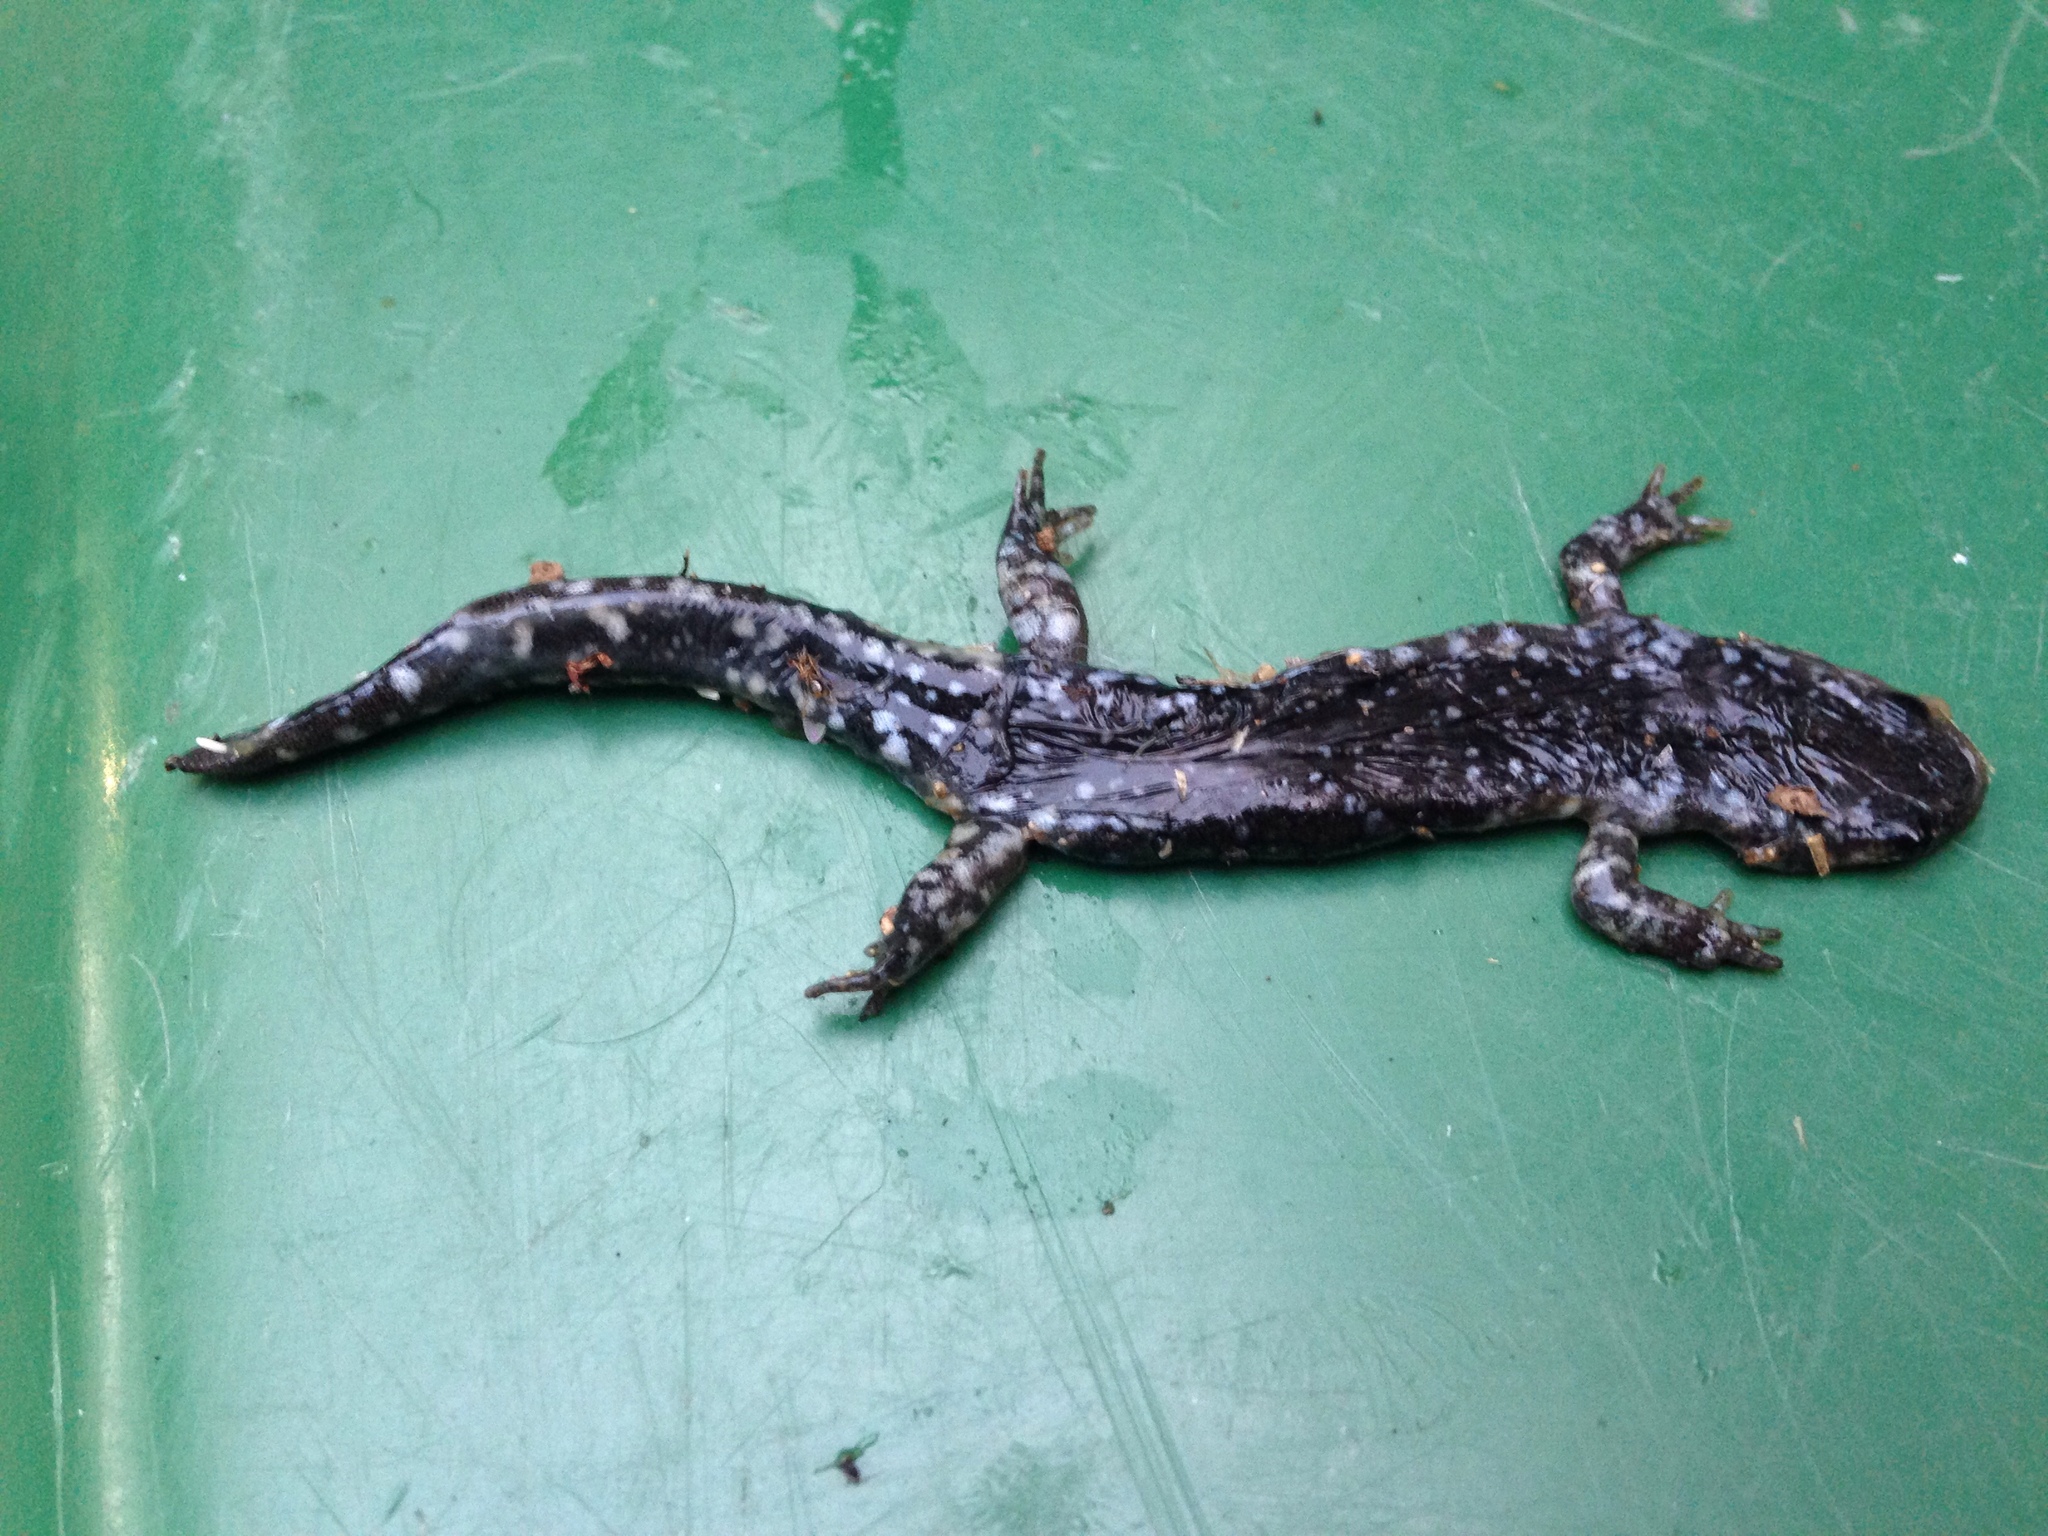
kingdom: Animalia
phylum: Chordata
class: Amphibia
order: Caudata
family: Ambystomatidae
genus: Ambystoma
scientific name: Ambystoma laterale
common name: Blue-spotted salamander
